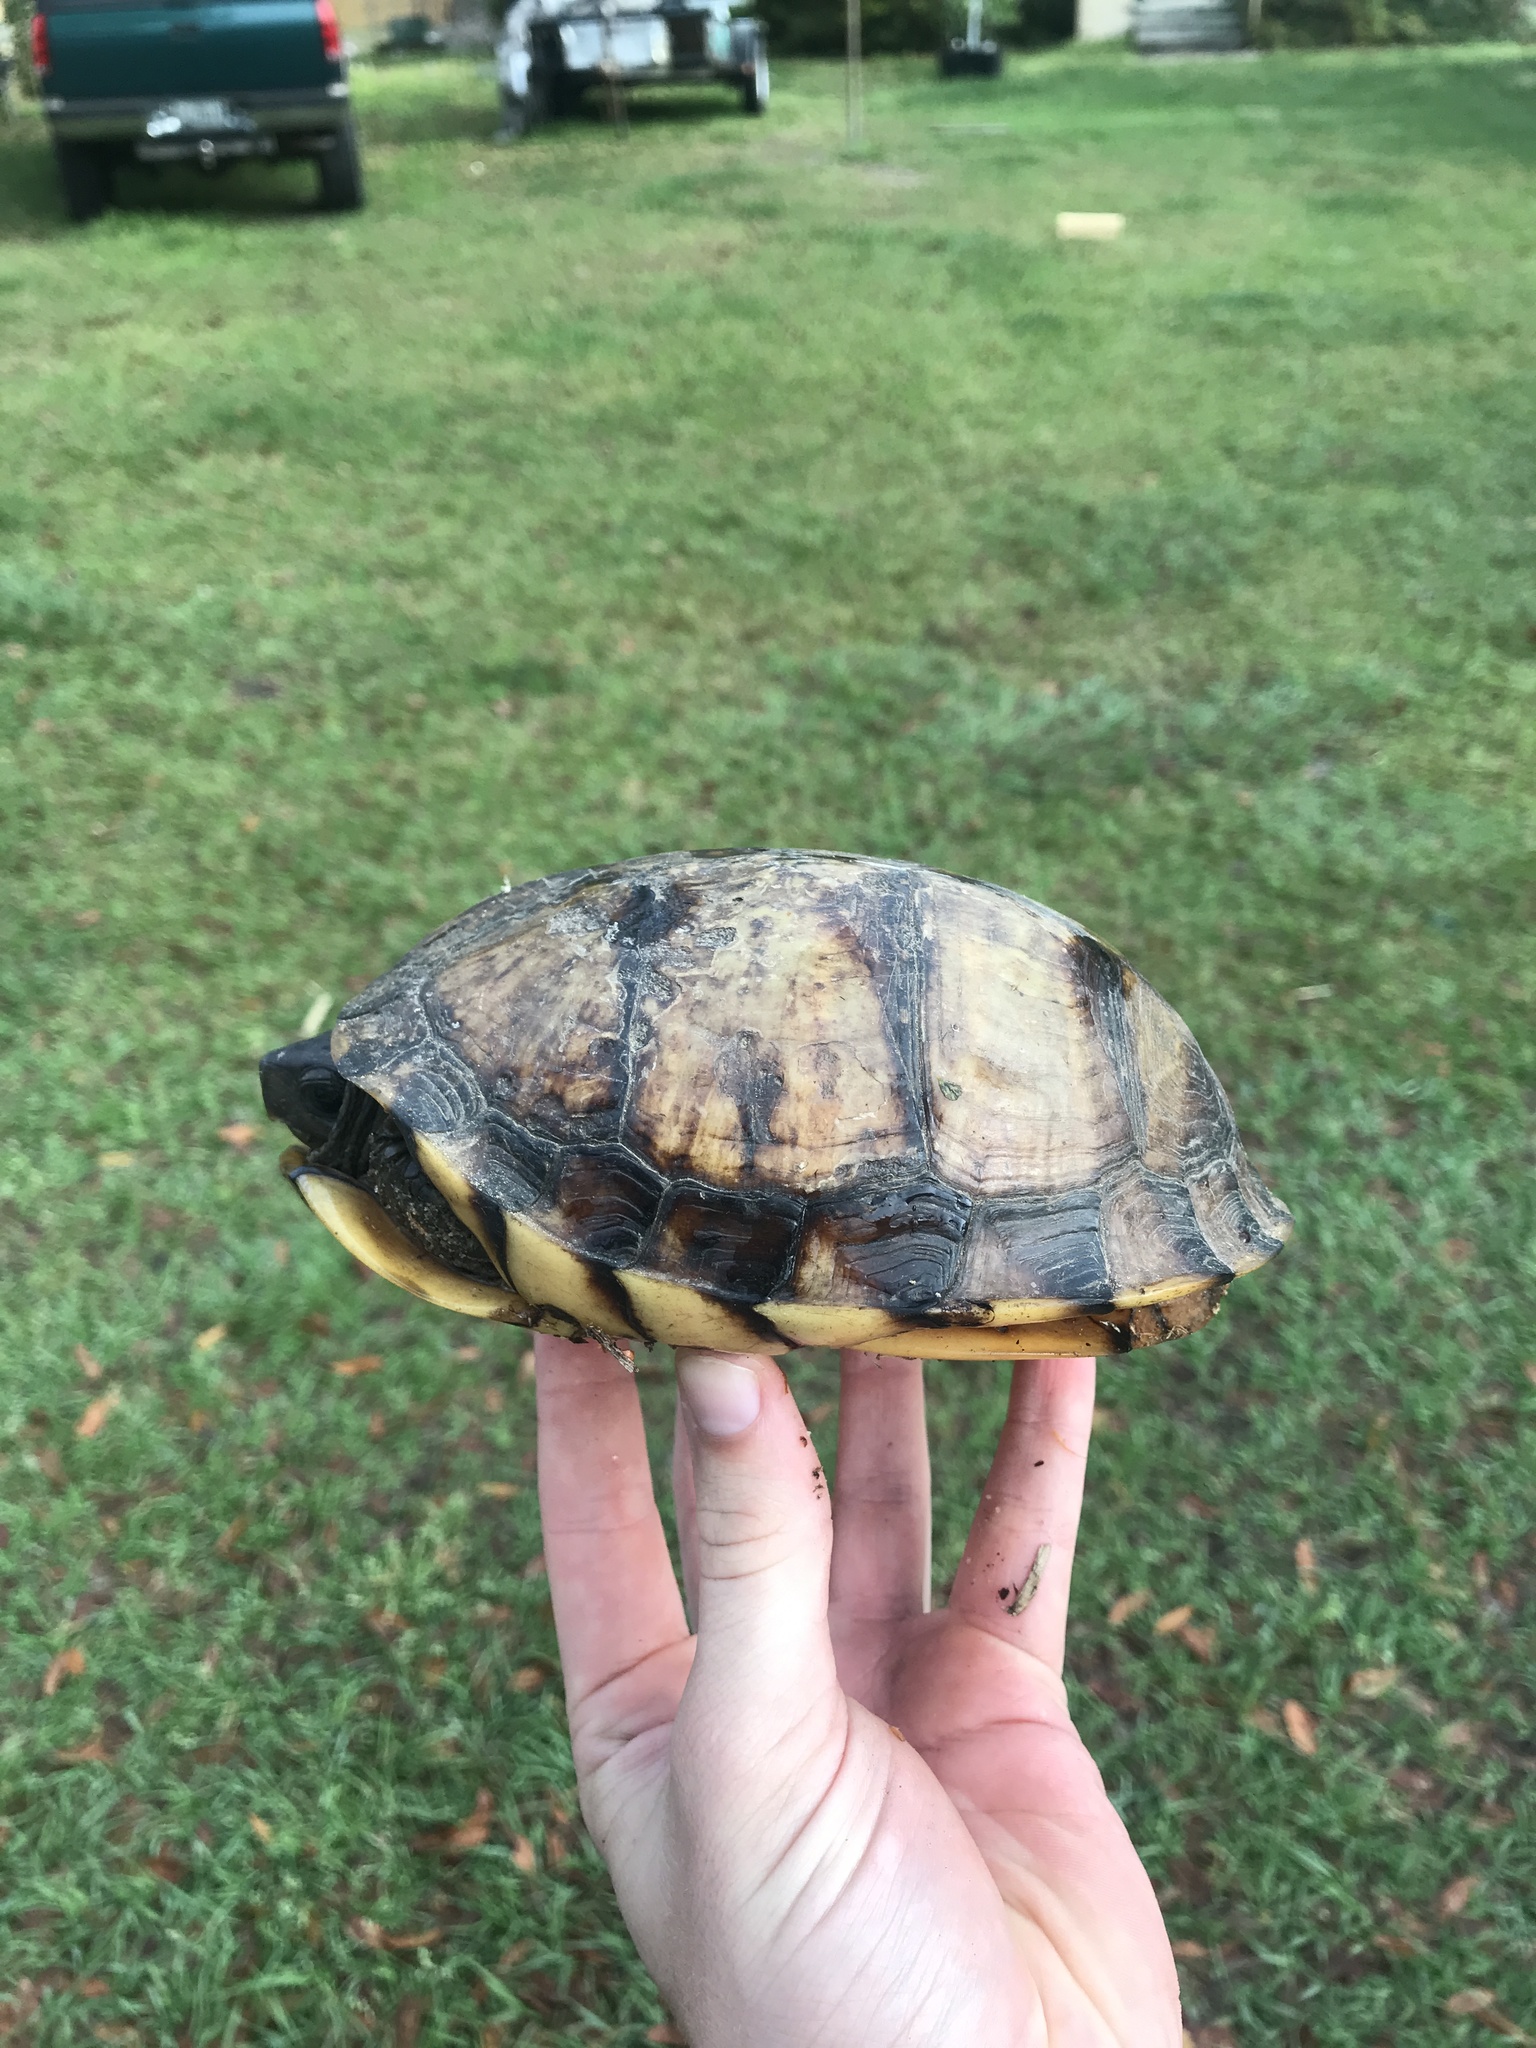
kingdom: Animalia
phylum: Chordata
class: Testudines
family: Emydidae
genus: Terrapene
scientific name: Terrapene carolina
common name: Common box turtle
